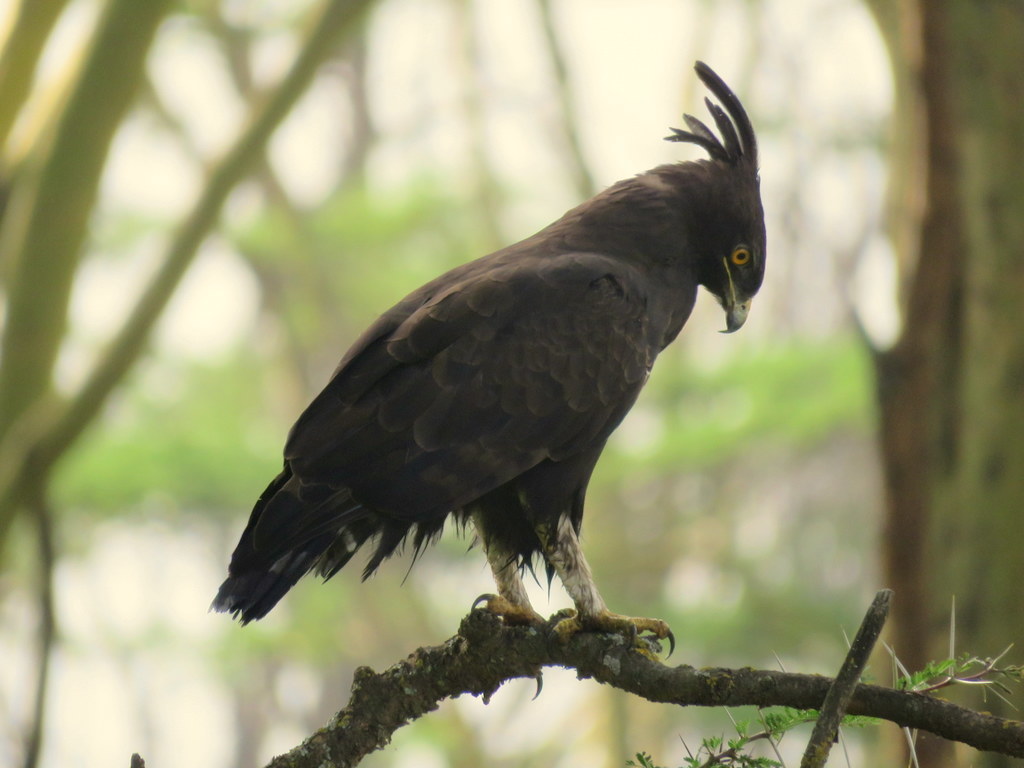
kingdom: Animalia
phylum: Chordata
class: Aves
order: Accipitriformes
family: Accipitridae
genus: Lophaetus
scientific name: Lophaetus occipitalis
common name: Long-crested eagle
